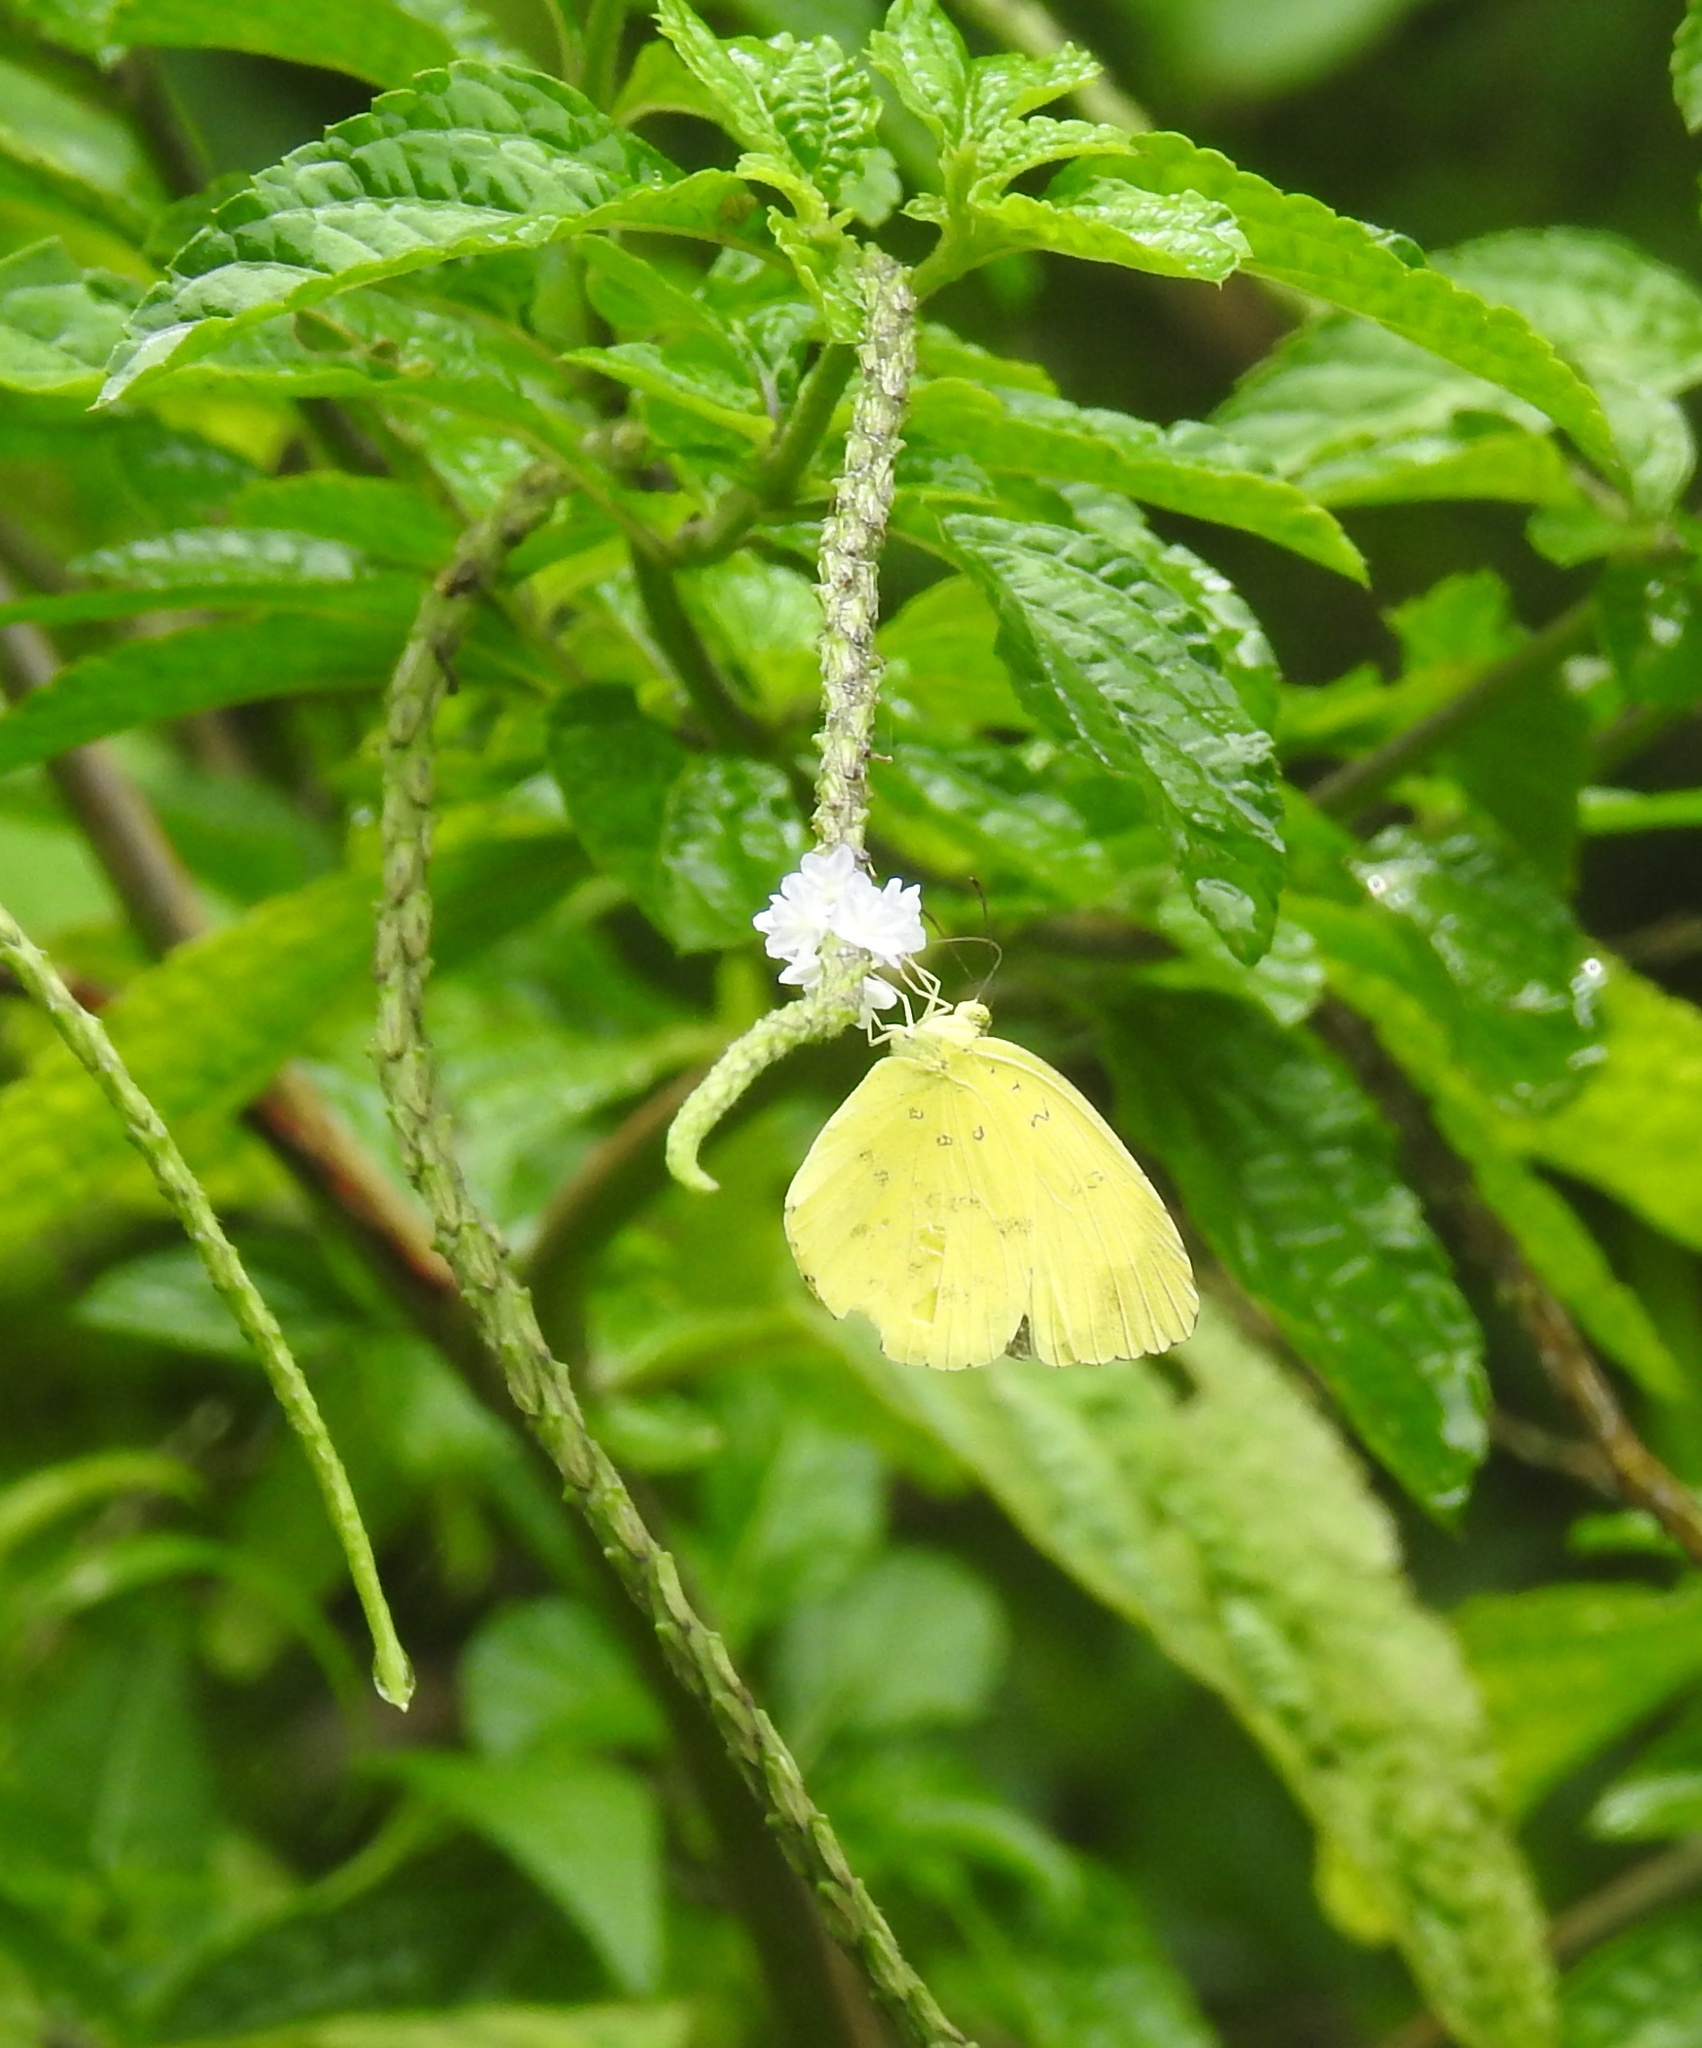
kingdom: Animalia
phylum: Arthropoda
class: Insecta
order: Lepidoptera
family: Pieridae
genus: Eurema
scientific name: Eurema blanda
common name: Three-spot grass yellow
